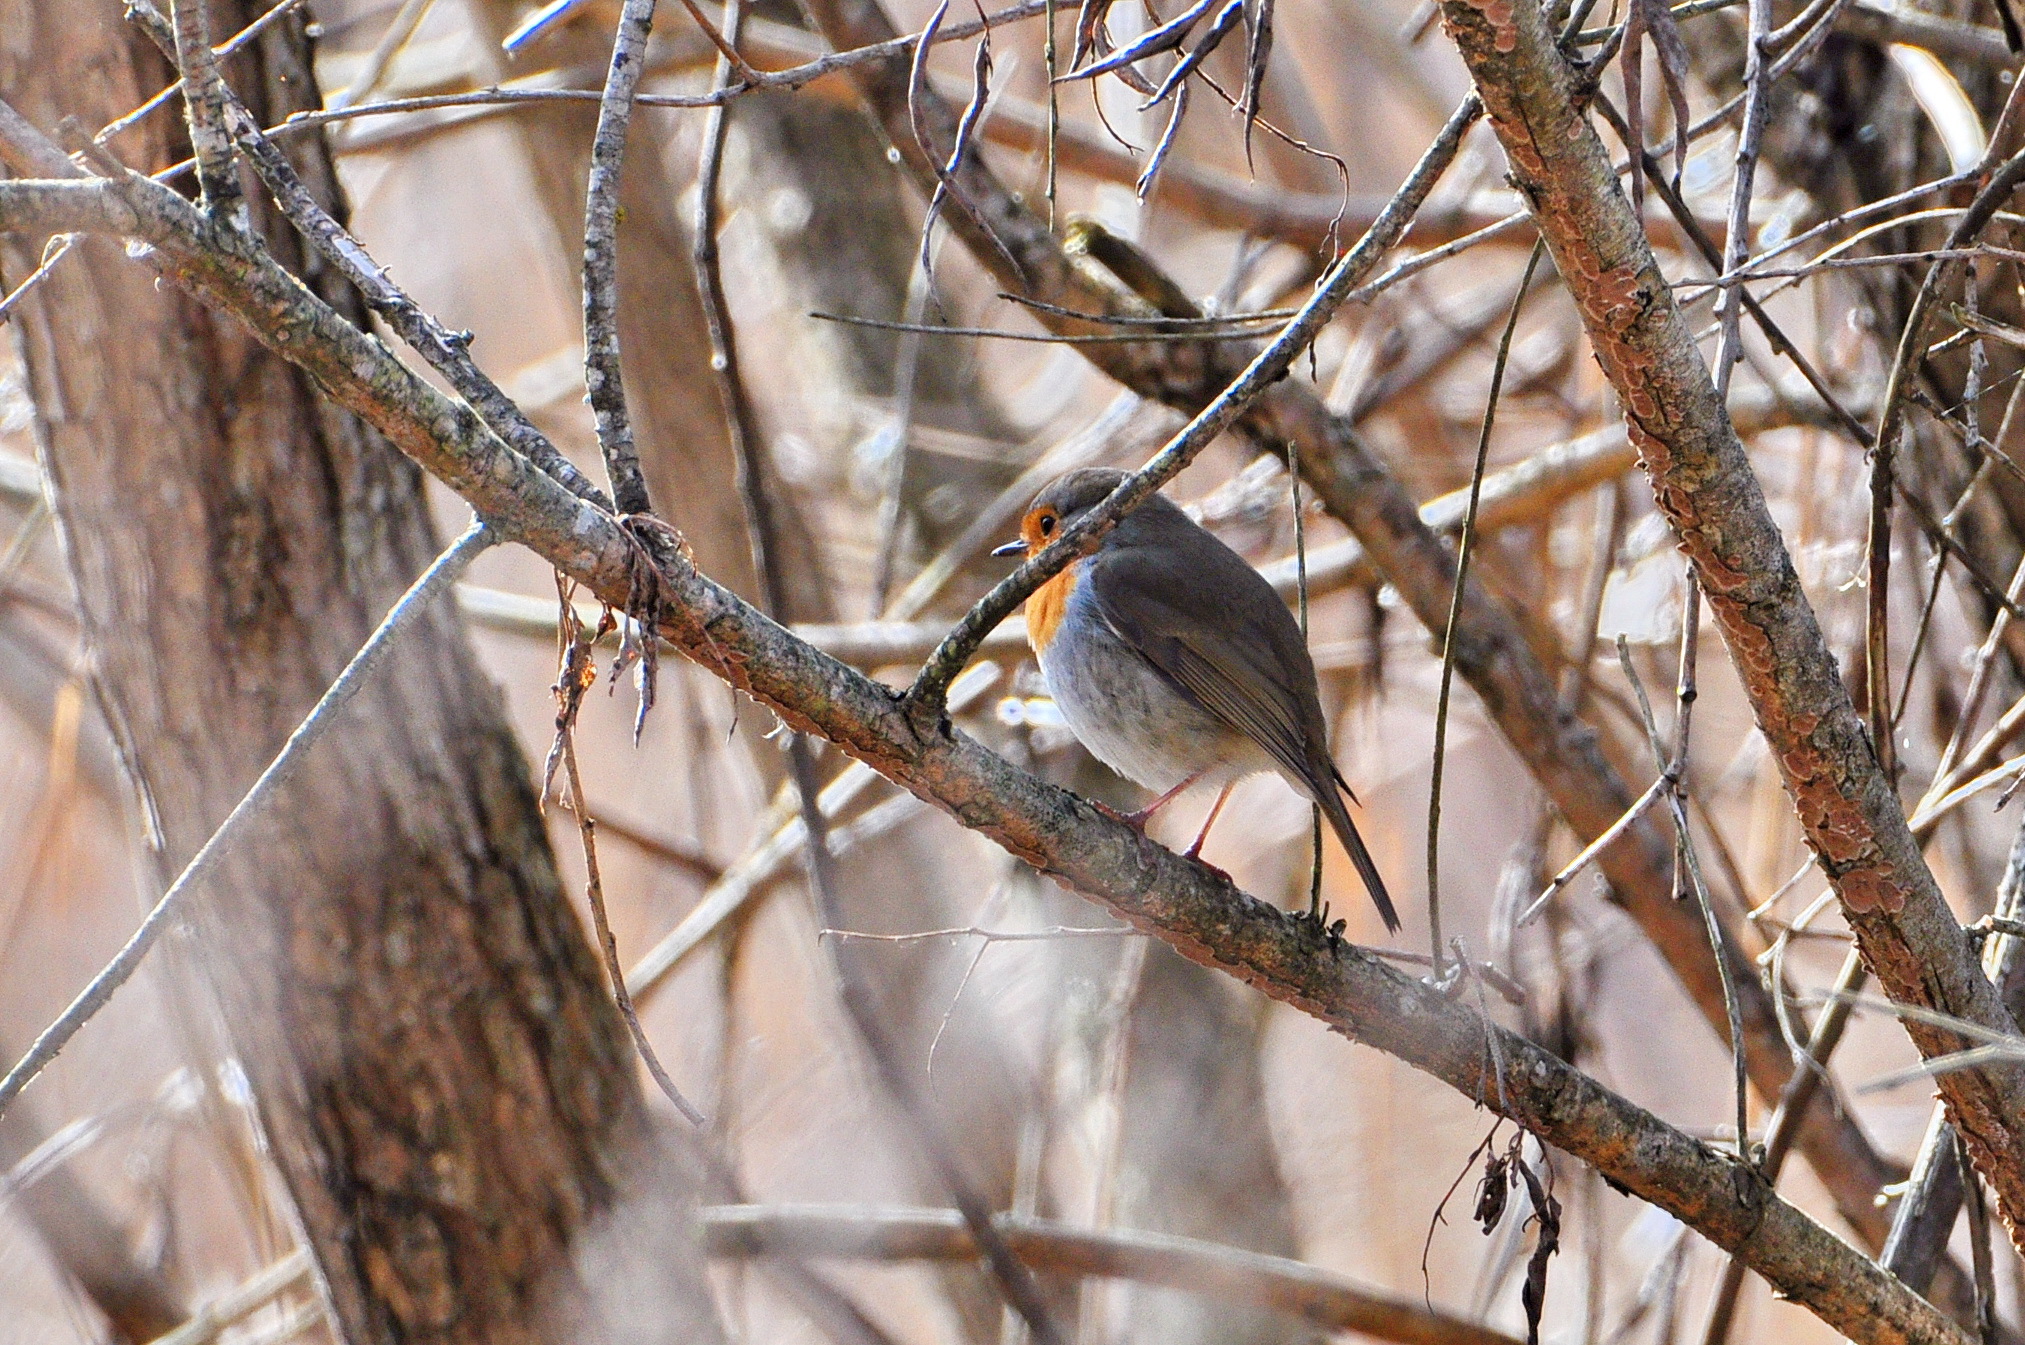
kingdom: Animalia
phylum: Chordata
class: Aves
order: Passeriformes
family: Muscicapidae
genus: Erithacus
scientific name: Erithacus rubecula
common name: European robin
